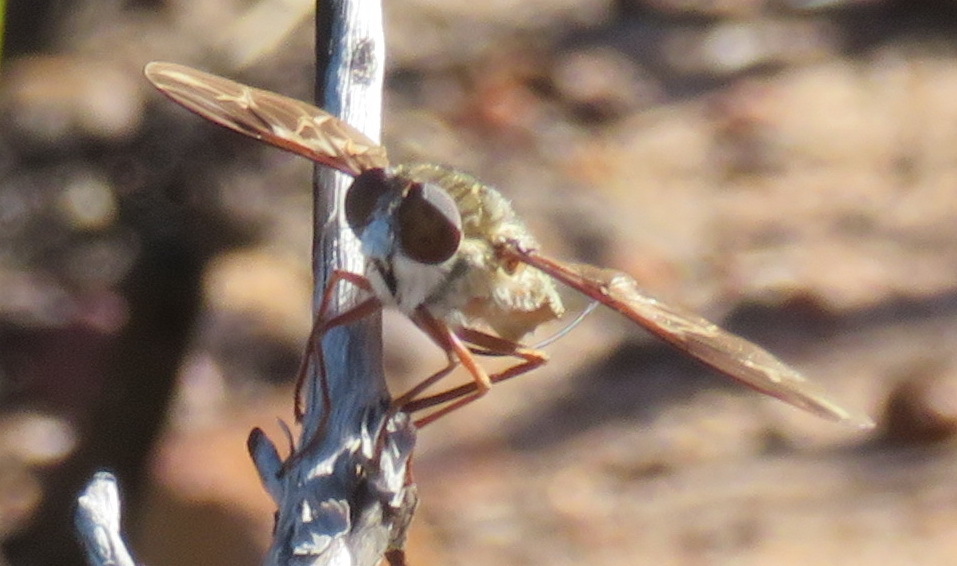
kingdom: Animalia
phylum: Arthropoda
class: Insecta
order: Diptera
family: Nemestrinidae
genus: Prosoeca
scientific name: Prosoeca ganglbaueri
